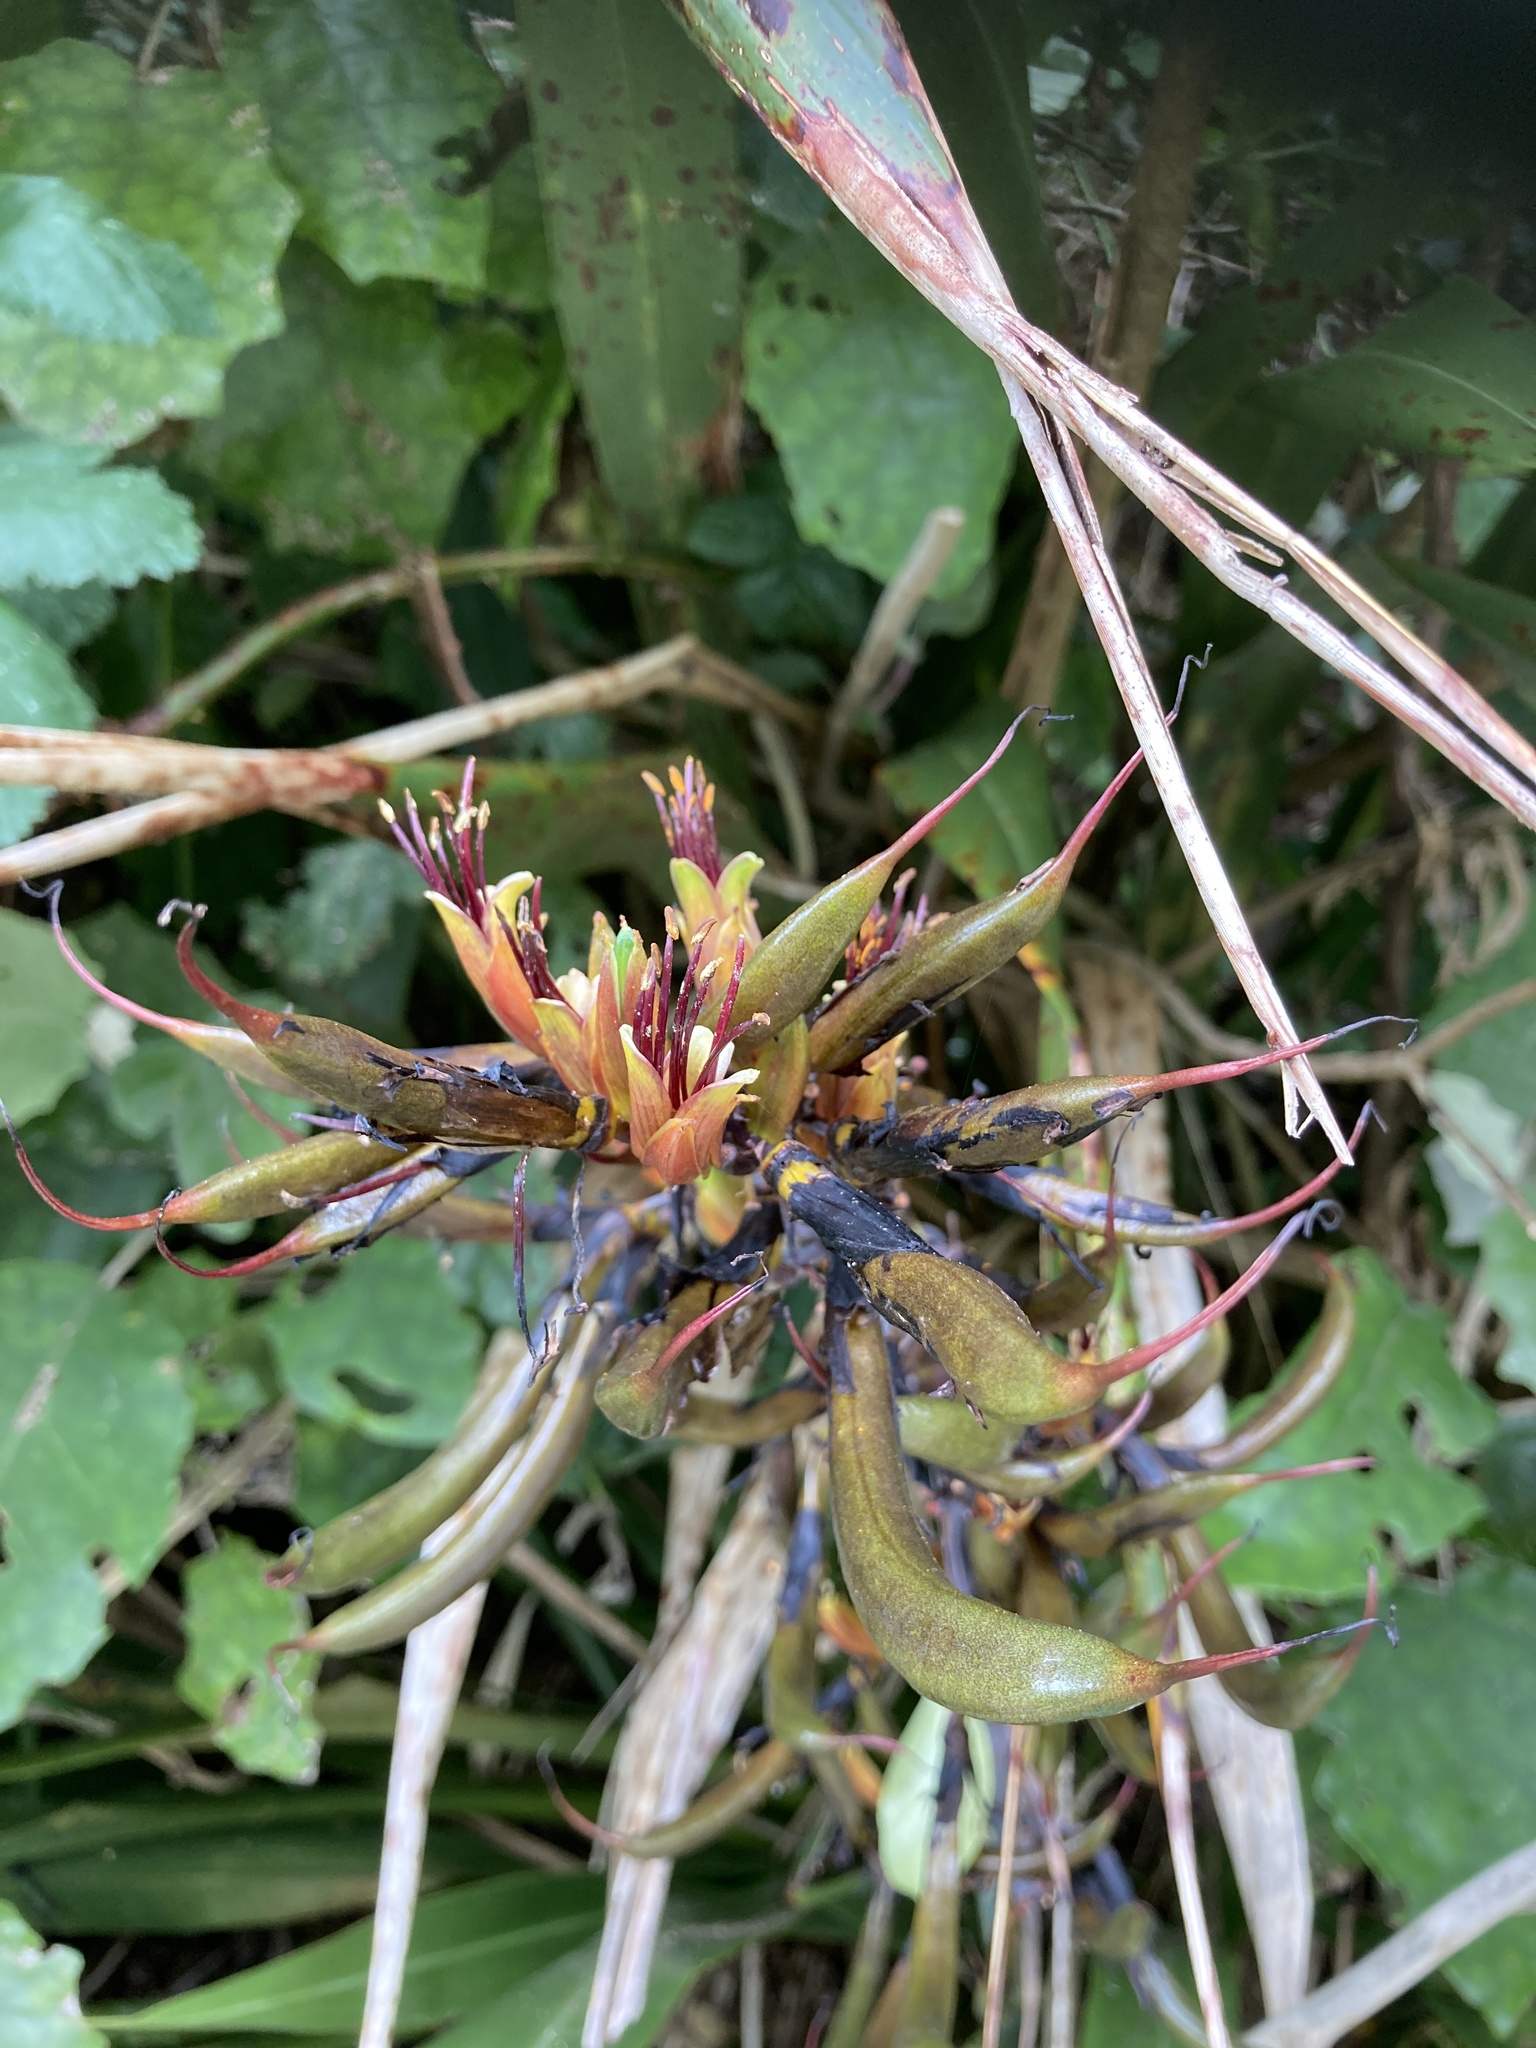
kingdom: Plantae
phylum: Tracheophyta
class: Liliopsida
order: Asparagales
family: Asphodelaceae
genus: Phormium
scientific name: Phormium tenax
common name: New zealand flax
